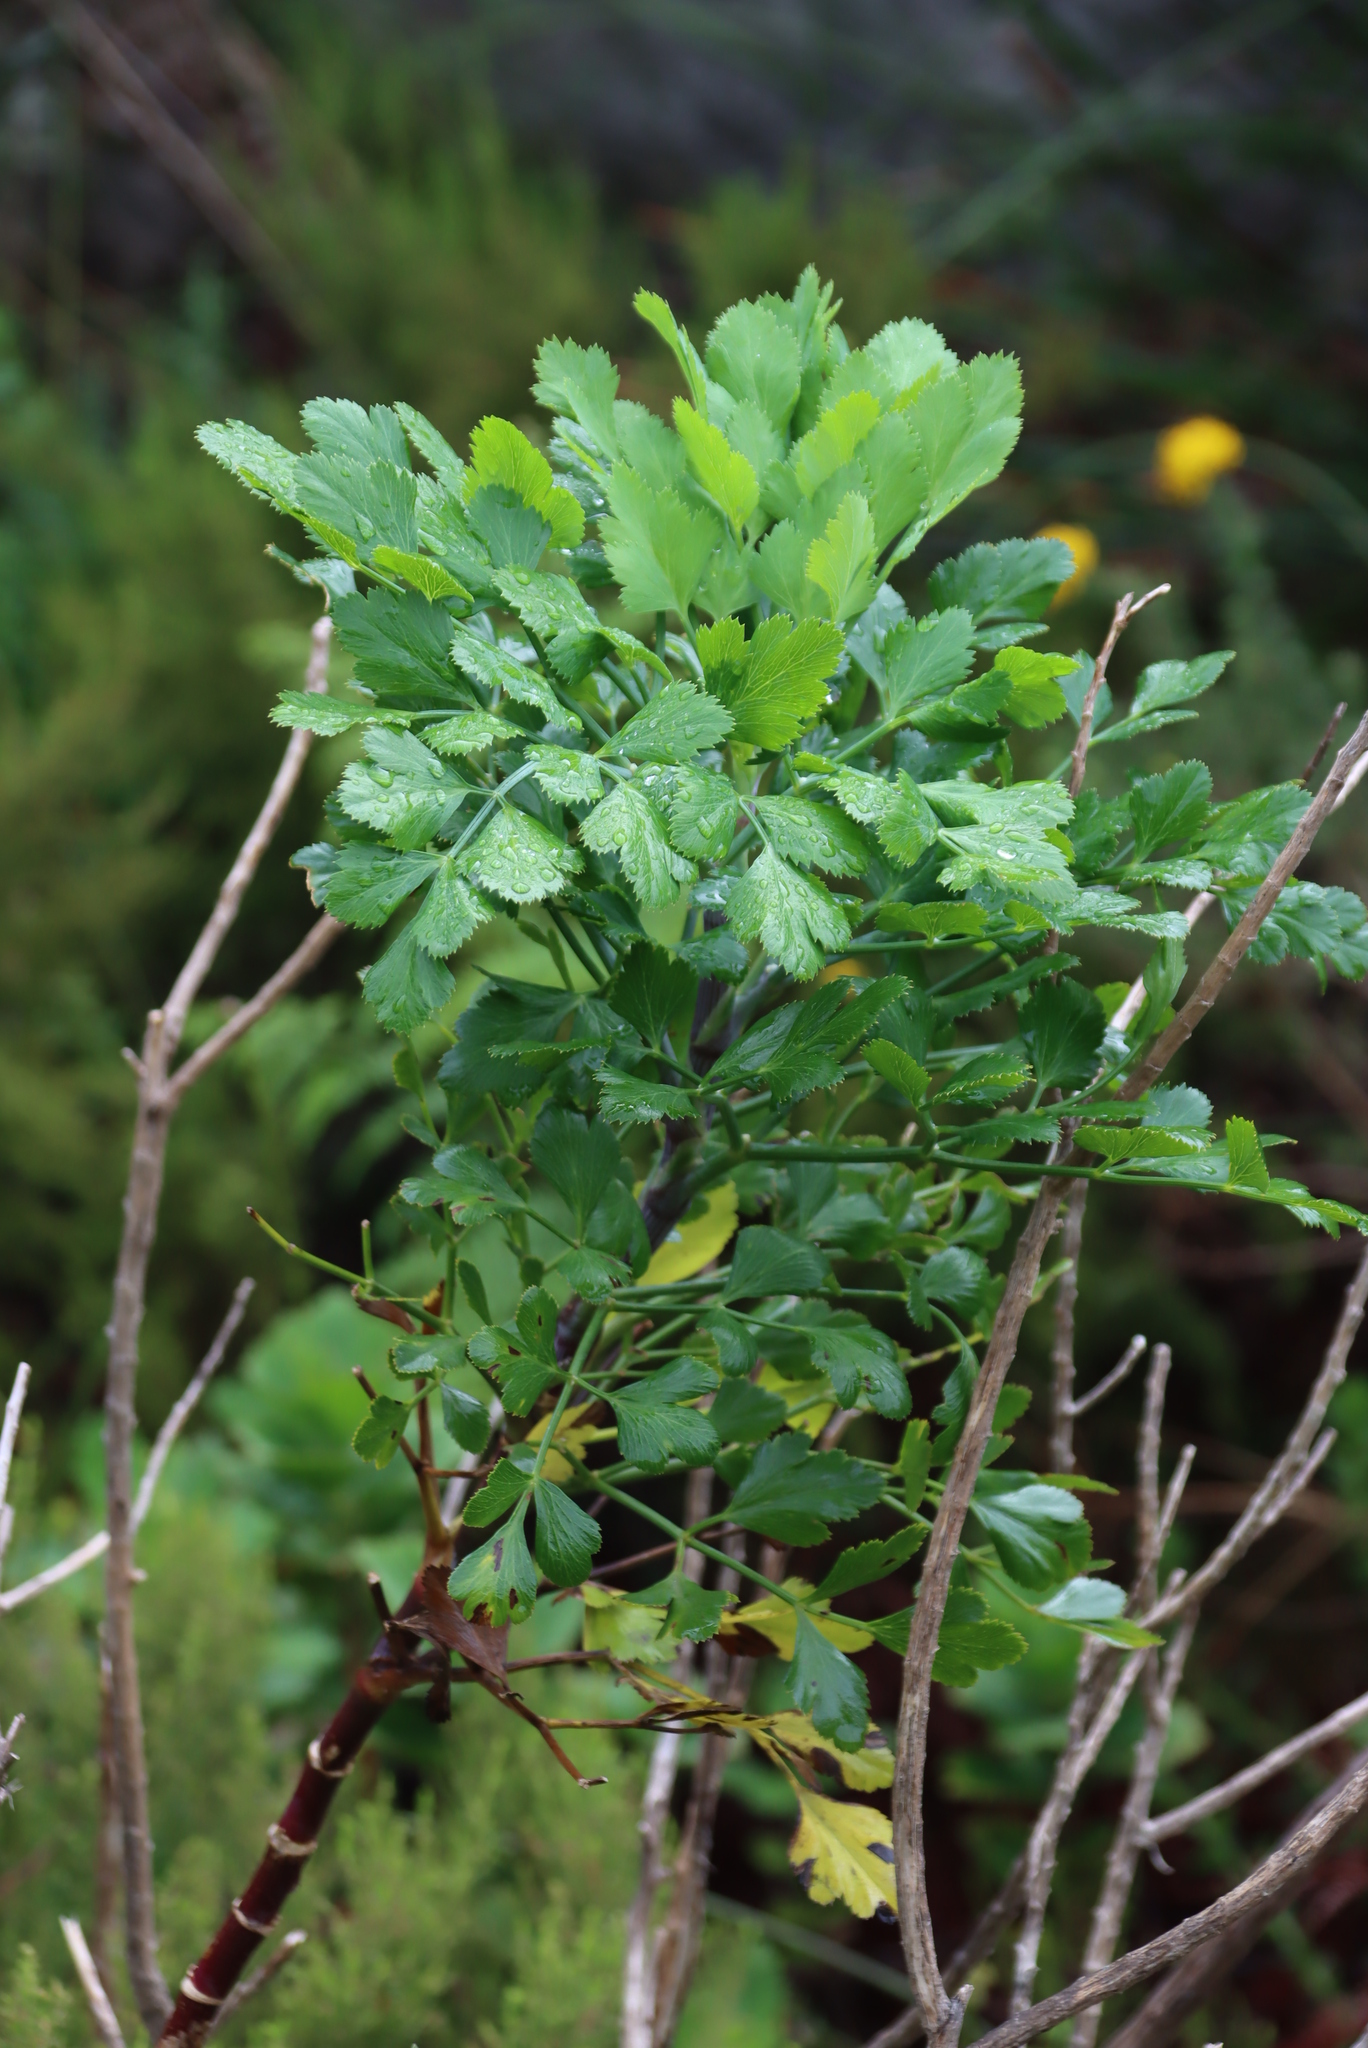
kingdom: Plantae
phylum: Tracheophyta
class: Magnoliopsida
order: Apiales
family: Apiaceae
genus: Notobubon
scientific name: Notobubon galbanum
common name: Blisterbush
